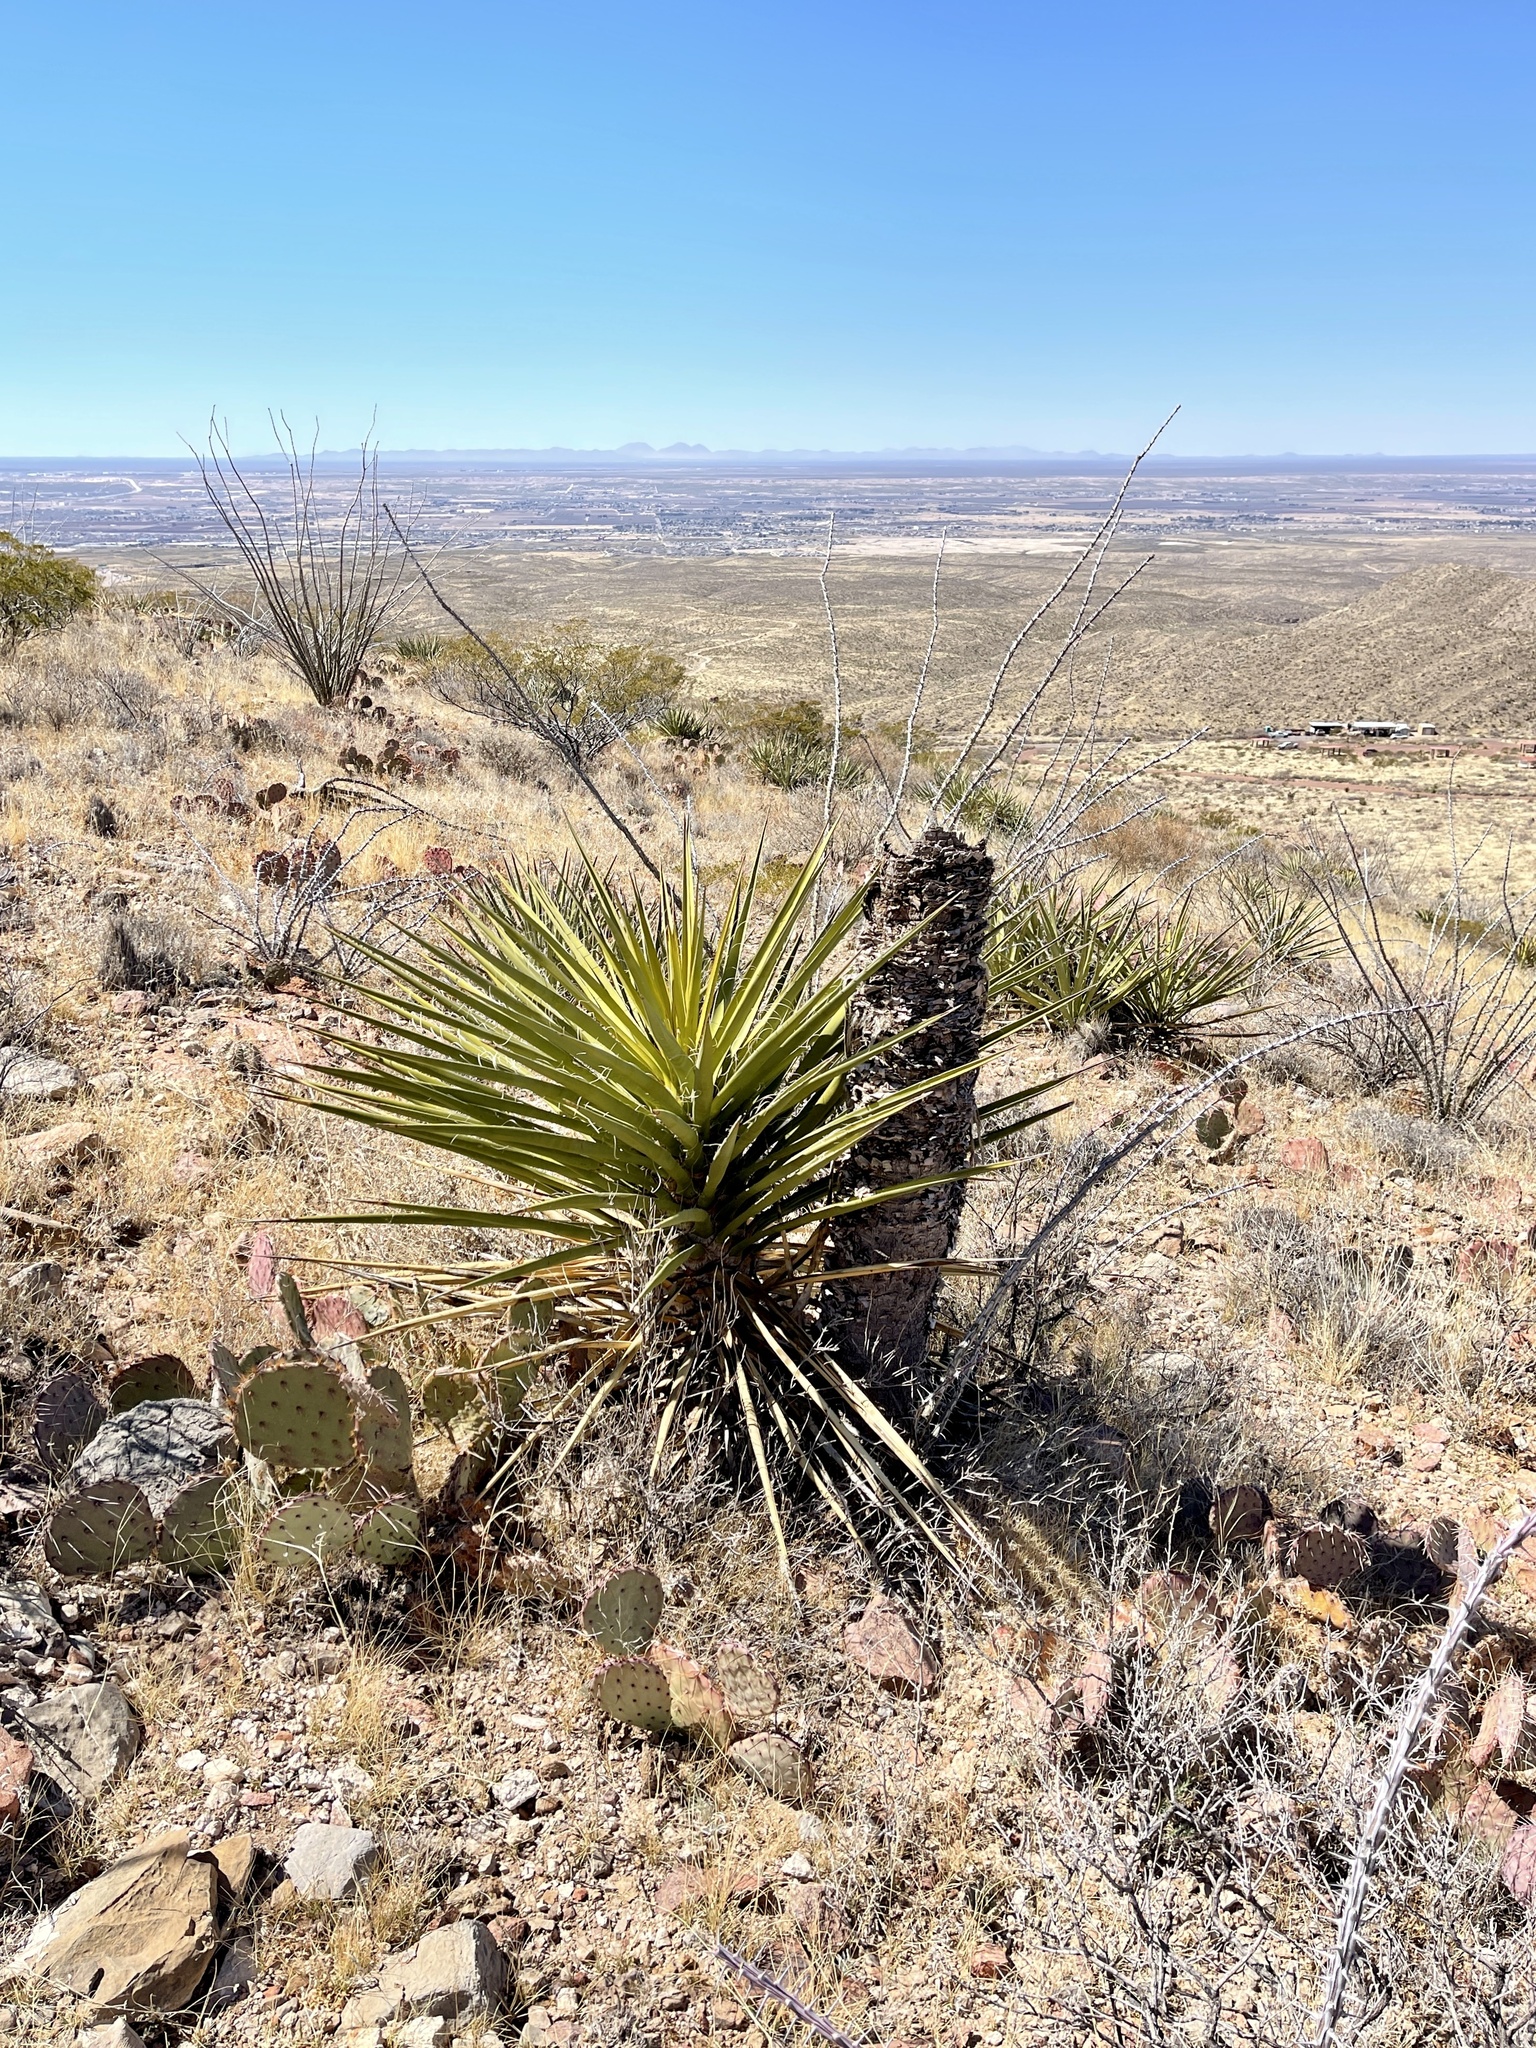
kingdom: Plantae
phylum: Tracheophyta
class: Liliopsida
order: Asparagales
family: Asparagaceae
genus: Yucca
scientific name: Yucca treculiana
